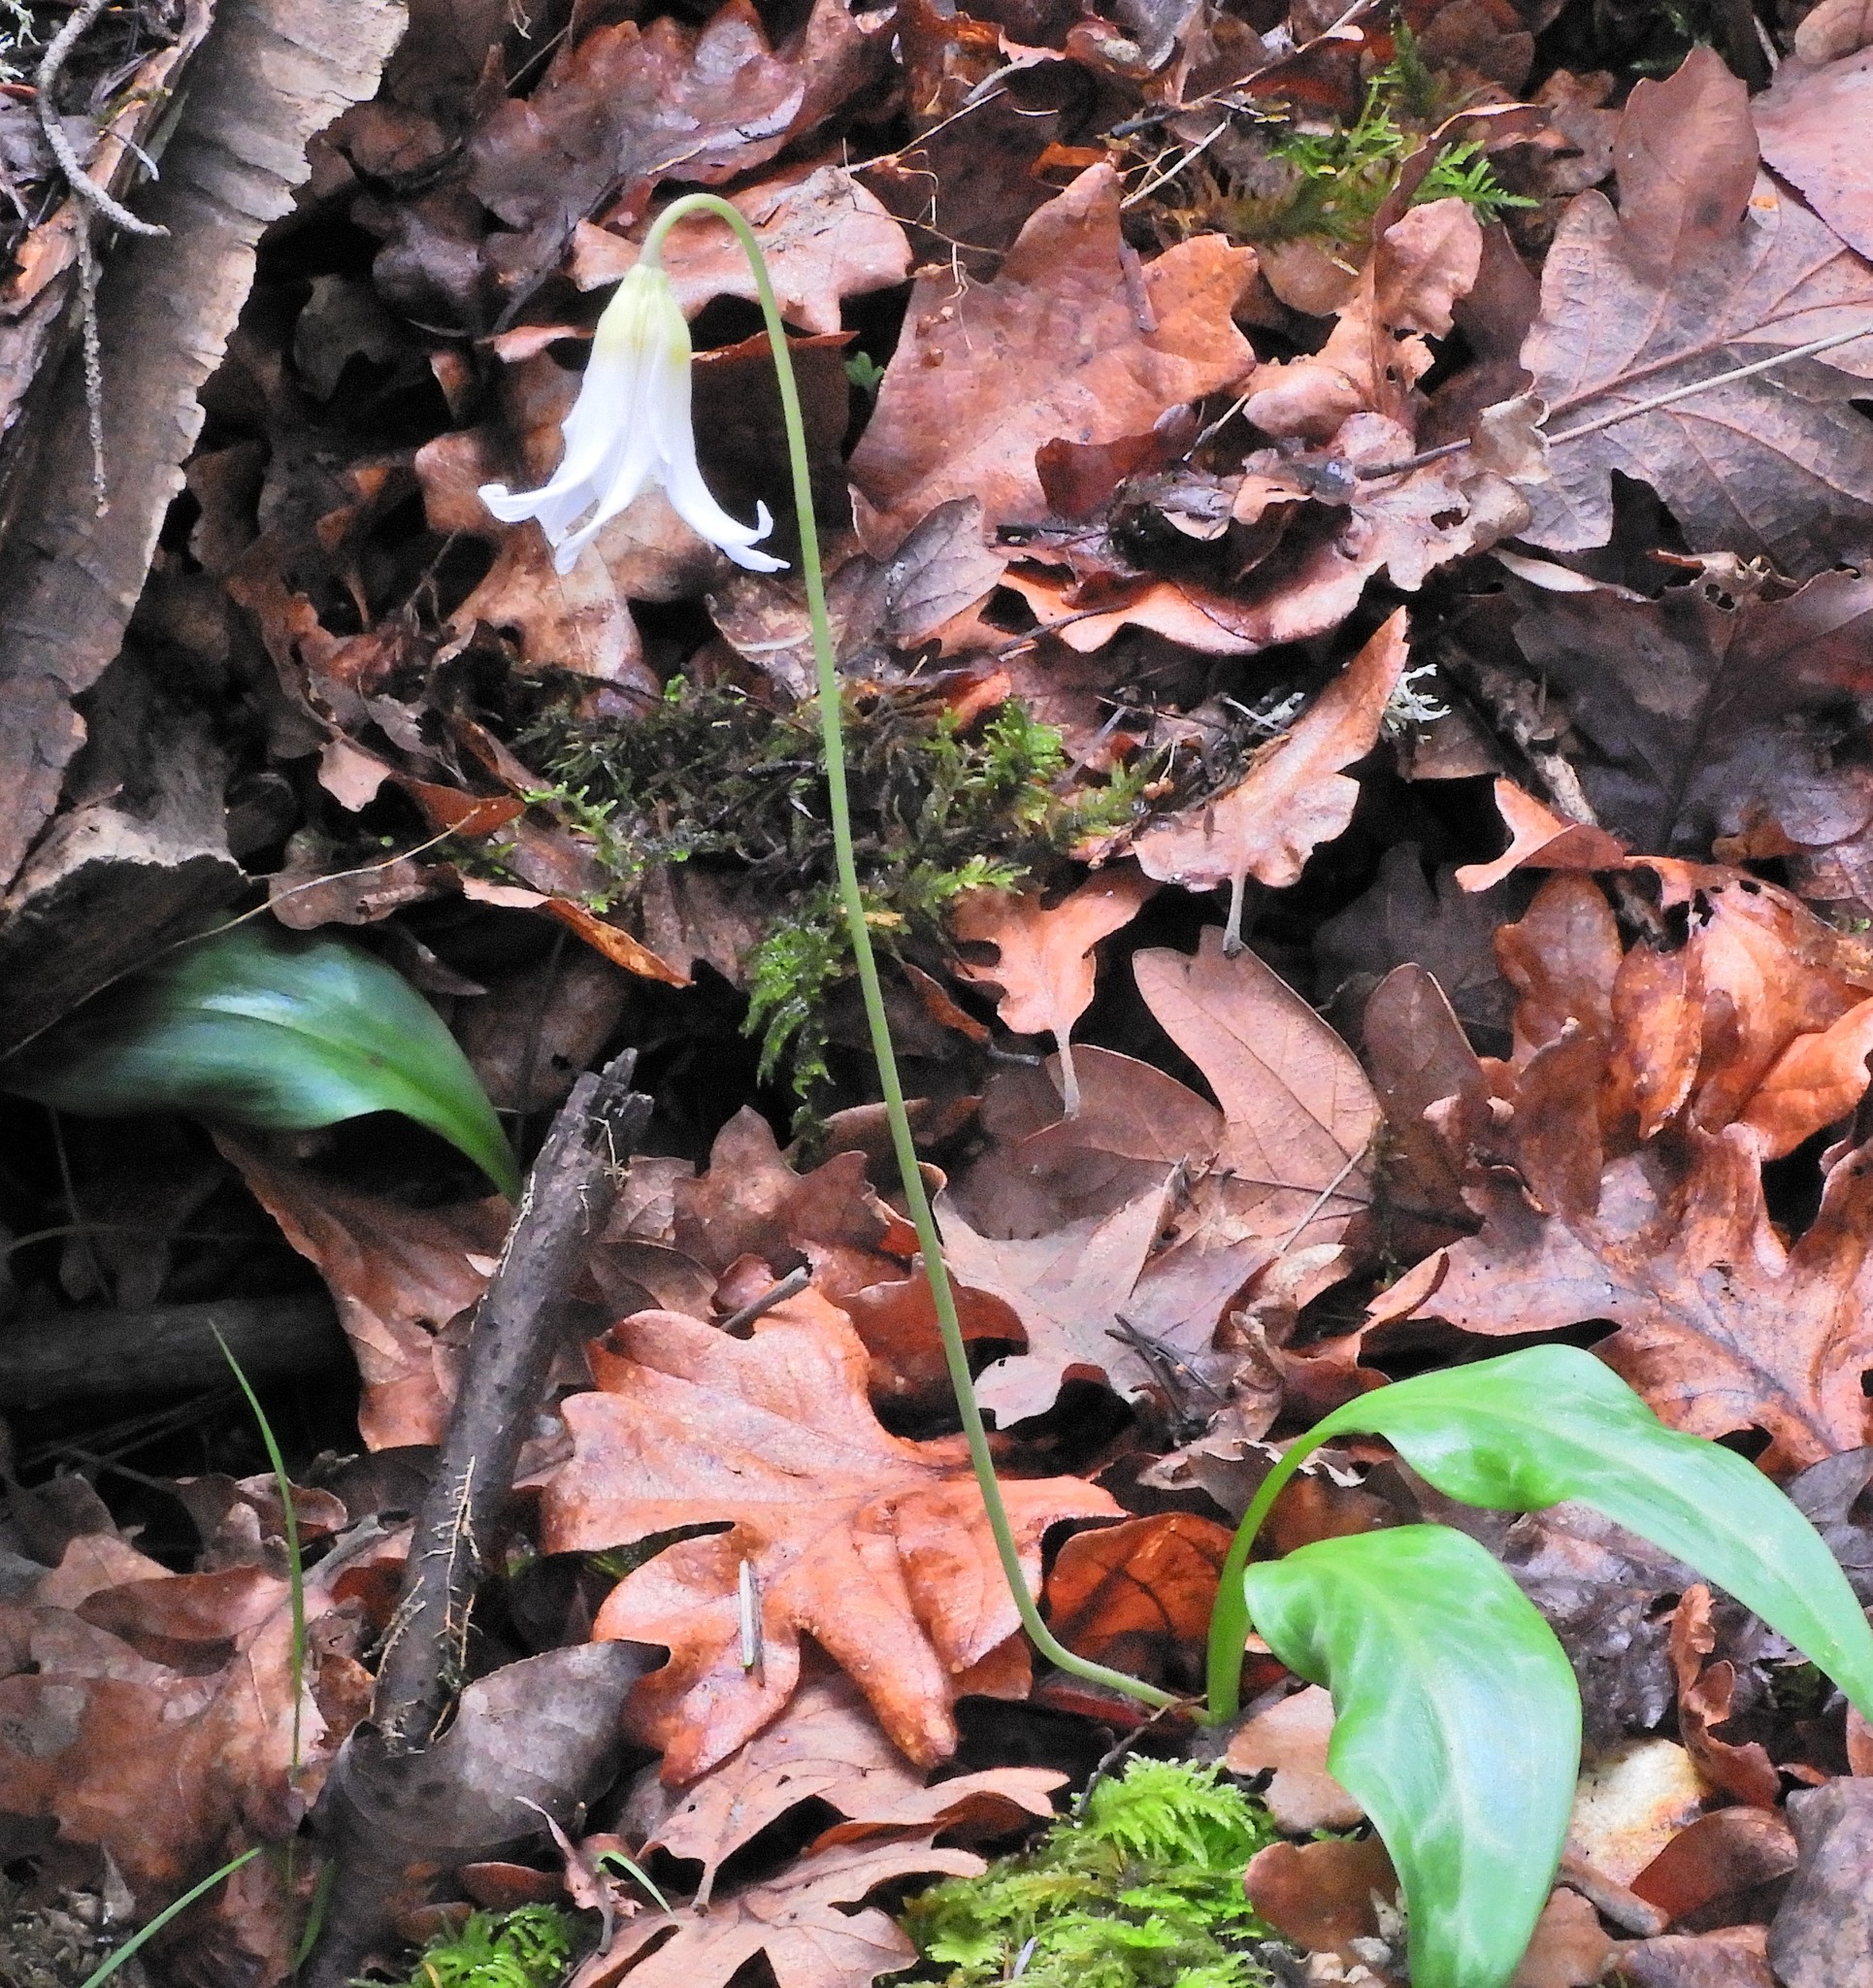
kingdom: Plantae
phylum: Tracheophyta
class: Liliopsida
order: Liliales
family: Liliaceae
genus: Erythronium
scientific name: Erythronium oregonum
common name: Giant adder's-tongue
